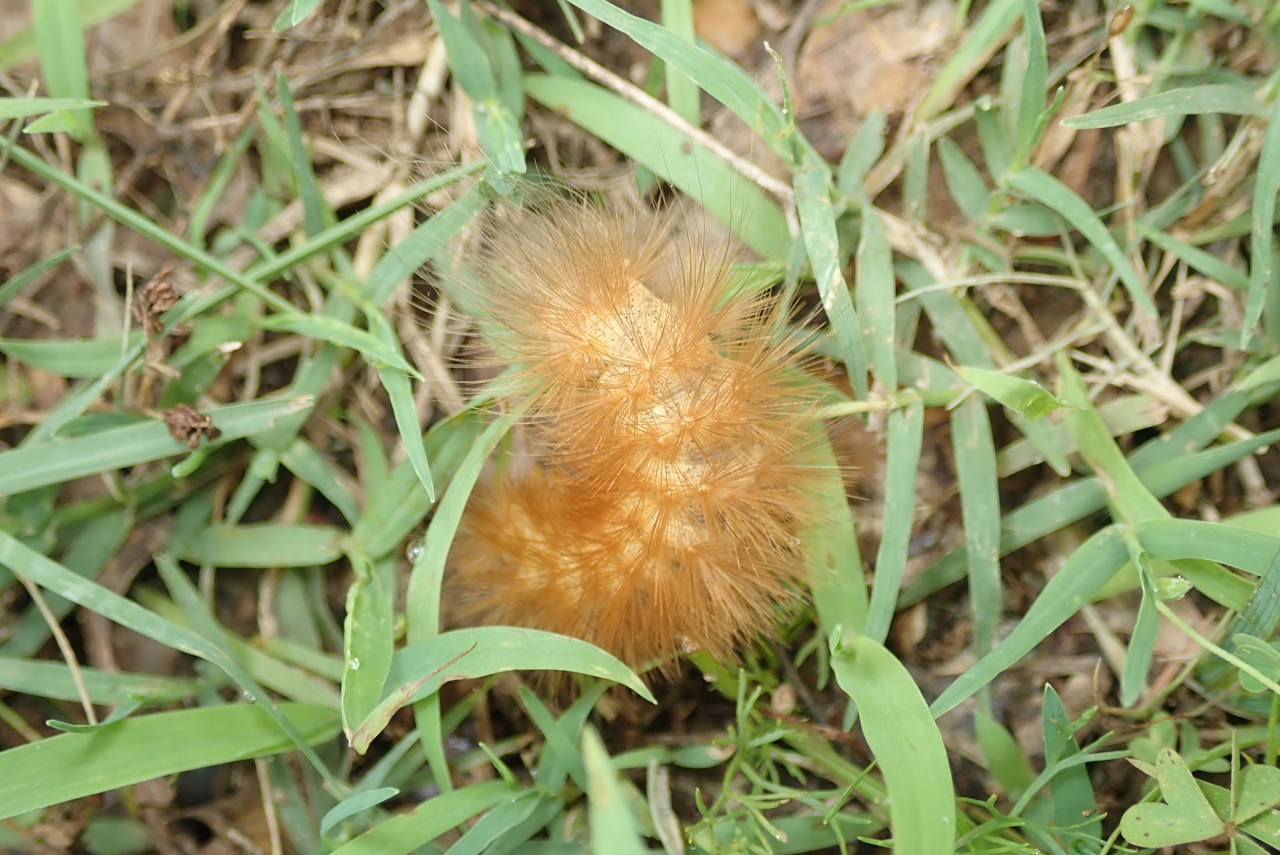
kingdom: Animalia
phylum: Arthropoda
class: Insecta
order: Lepidoptera
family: Erebidae
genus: Estigmene
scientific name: Estigmene acrea
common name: Salt marsh moth
